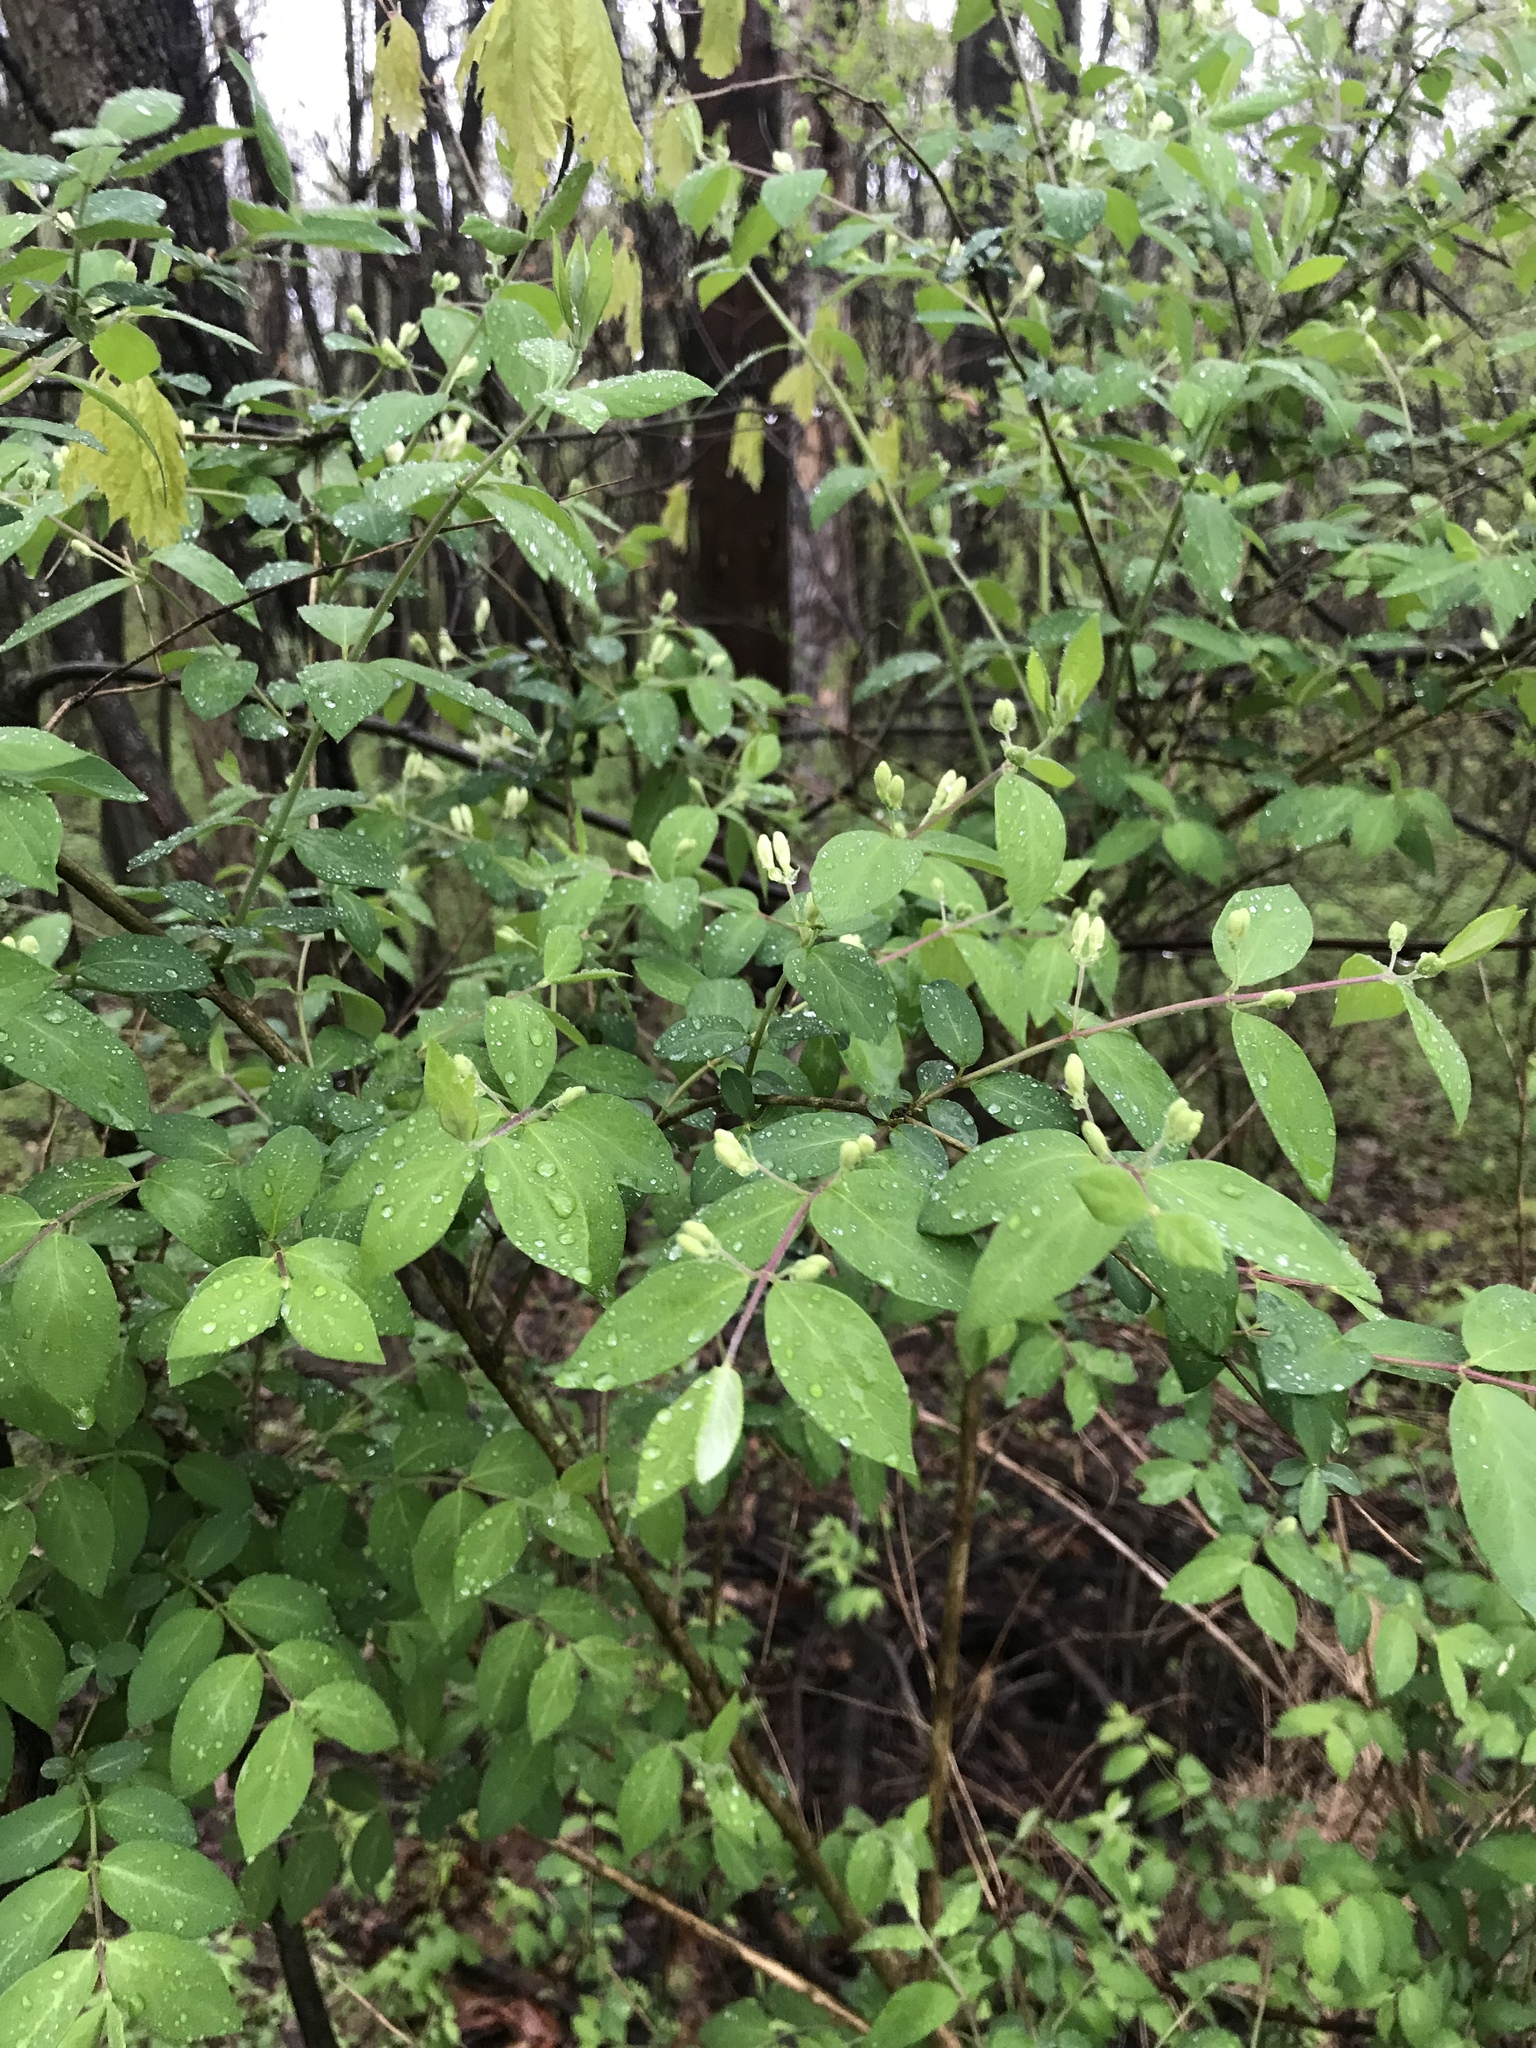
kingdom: Plantae
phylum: Tracheophyta
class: Magnoliopsida
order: Dipsacales
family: Caprifoliaceae
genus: Lonicera
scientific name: Lonicera morrowii
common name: Morrow's honeysuckle
